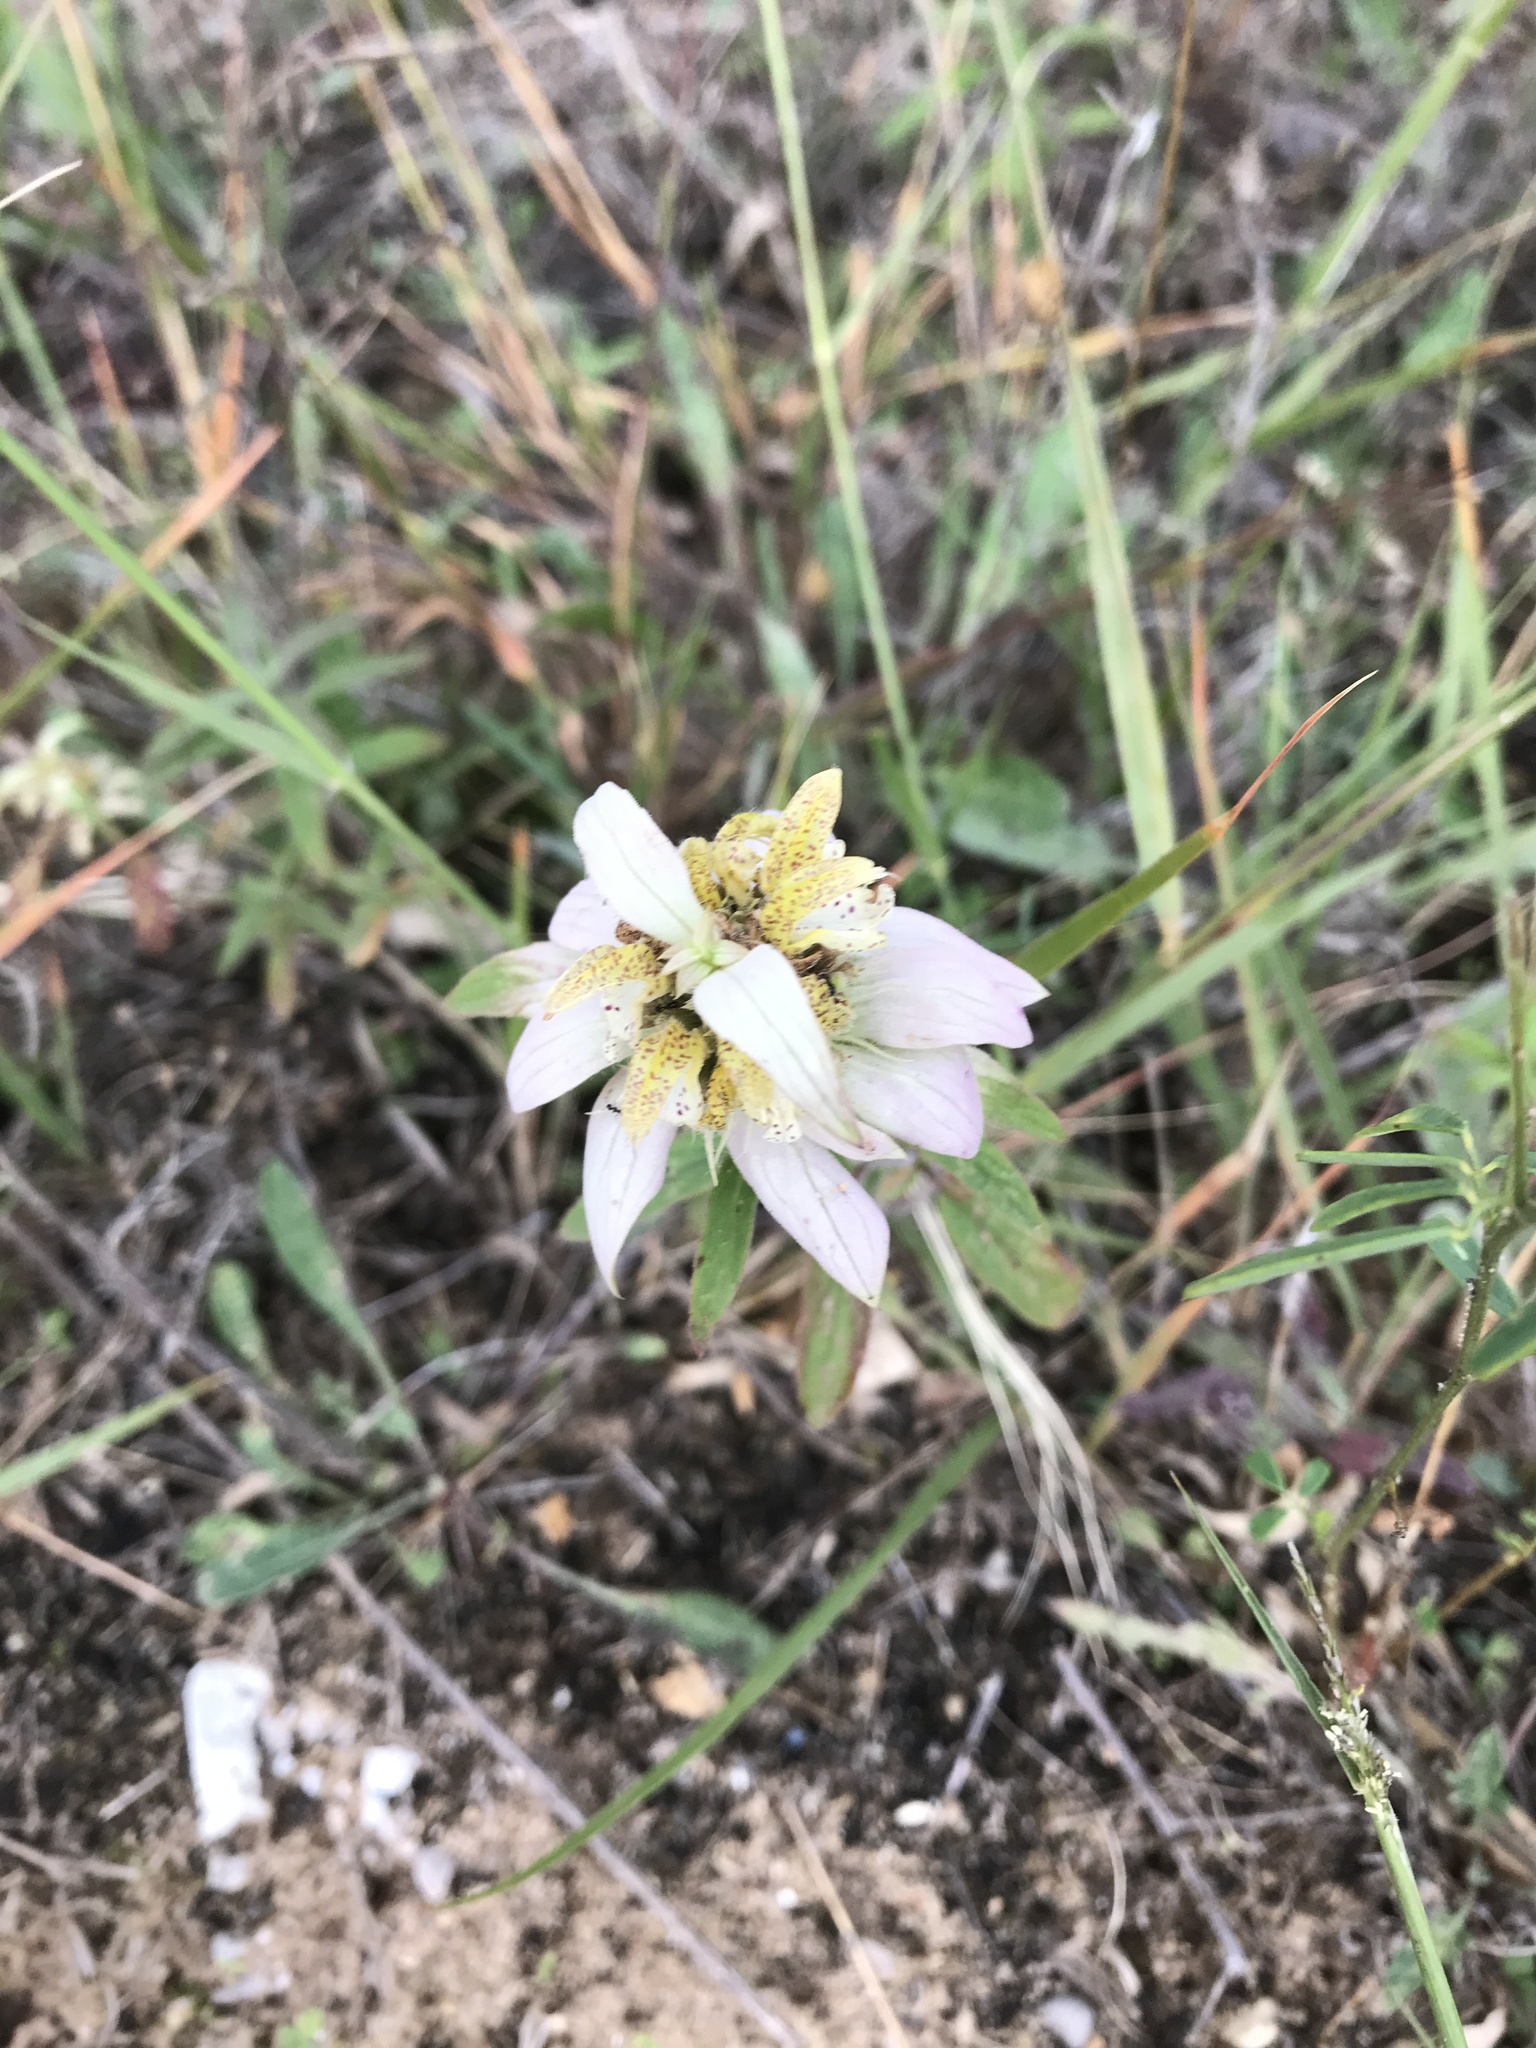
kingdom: Plantae
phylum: Tracheophyta
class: Magnoliopsida
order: Lamiales
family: Lamiaceae
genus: Monarda
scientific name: Monarda punctata
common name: Dotted monarda
